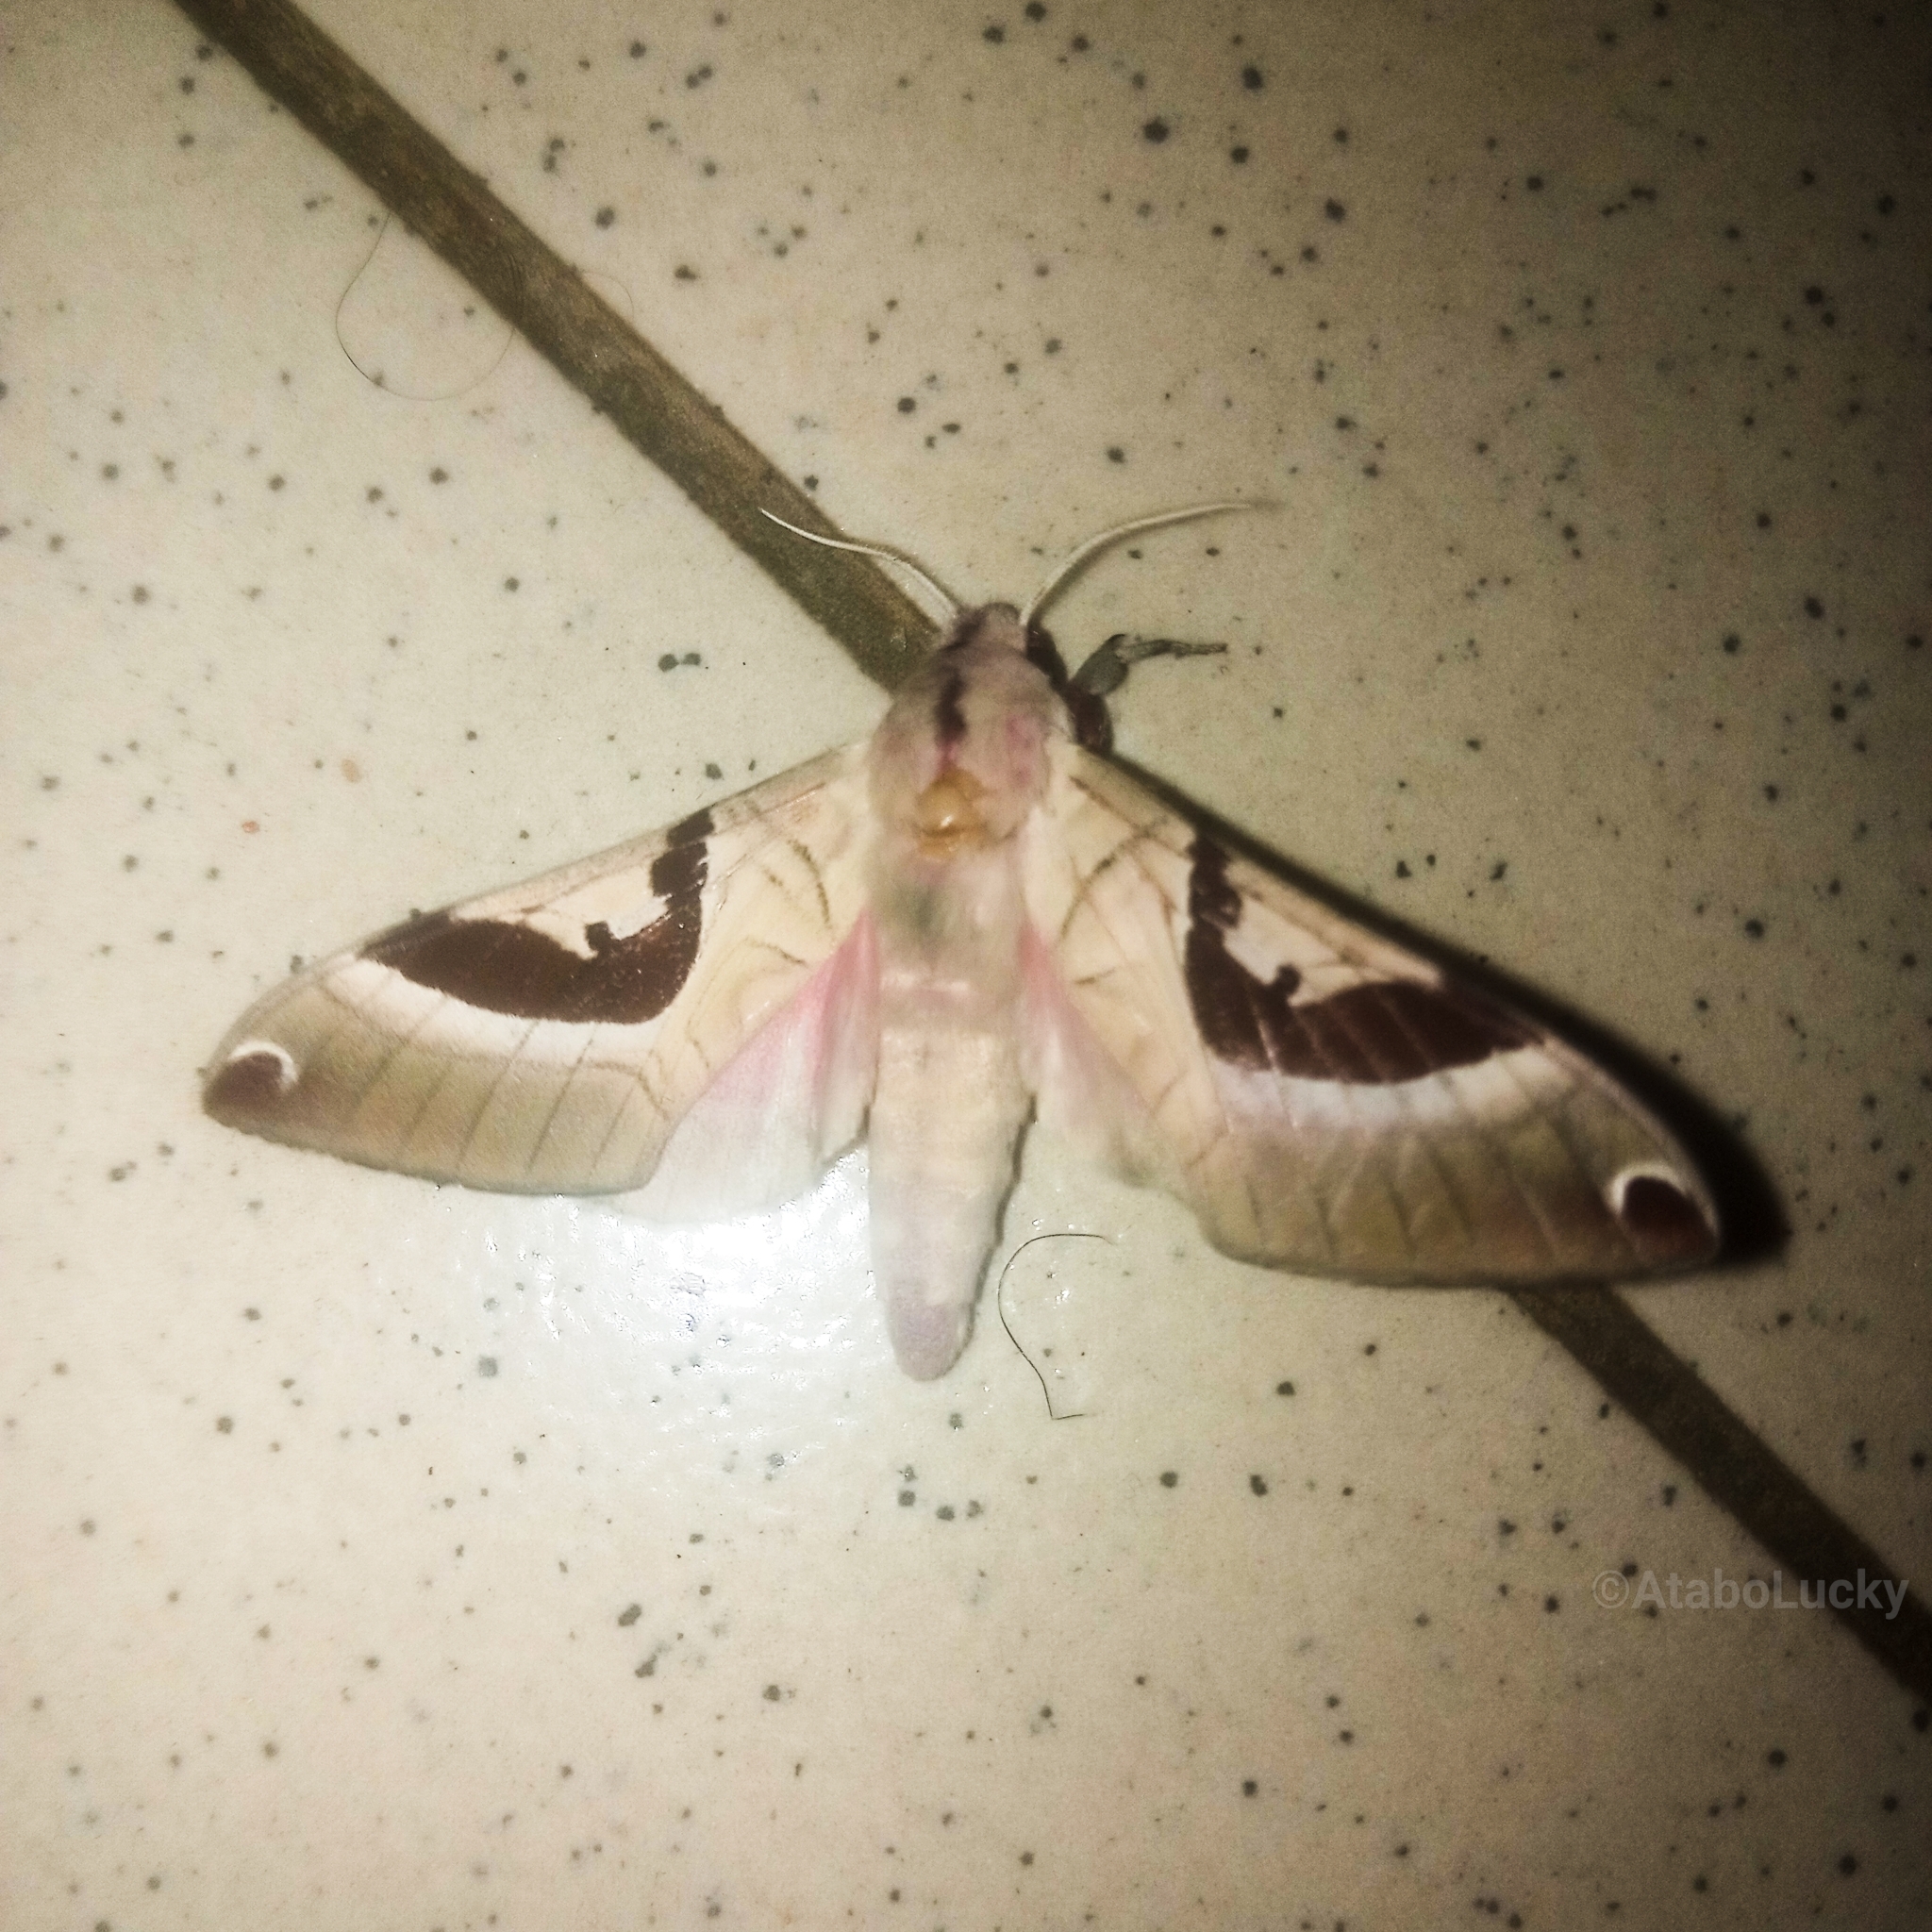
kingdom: Animalia
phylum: Arthropoda
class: Insecta
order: Lepidoptera
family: Sphingidae
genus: Ceridia
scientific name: Ceridia heuglini
